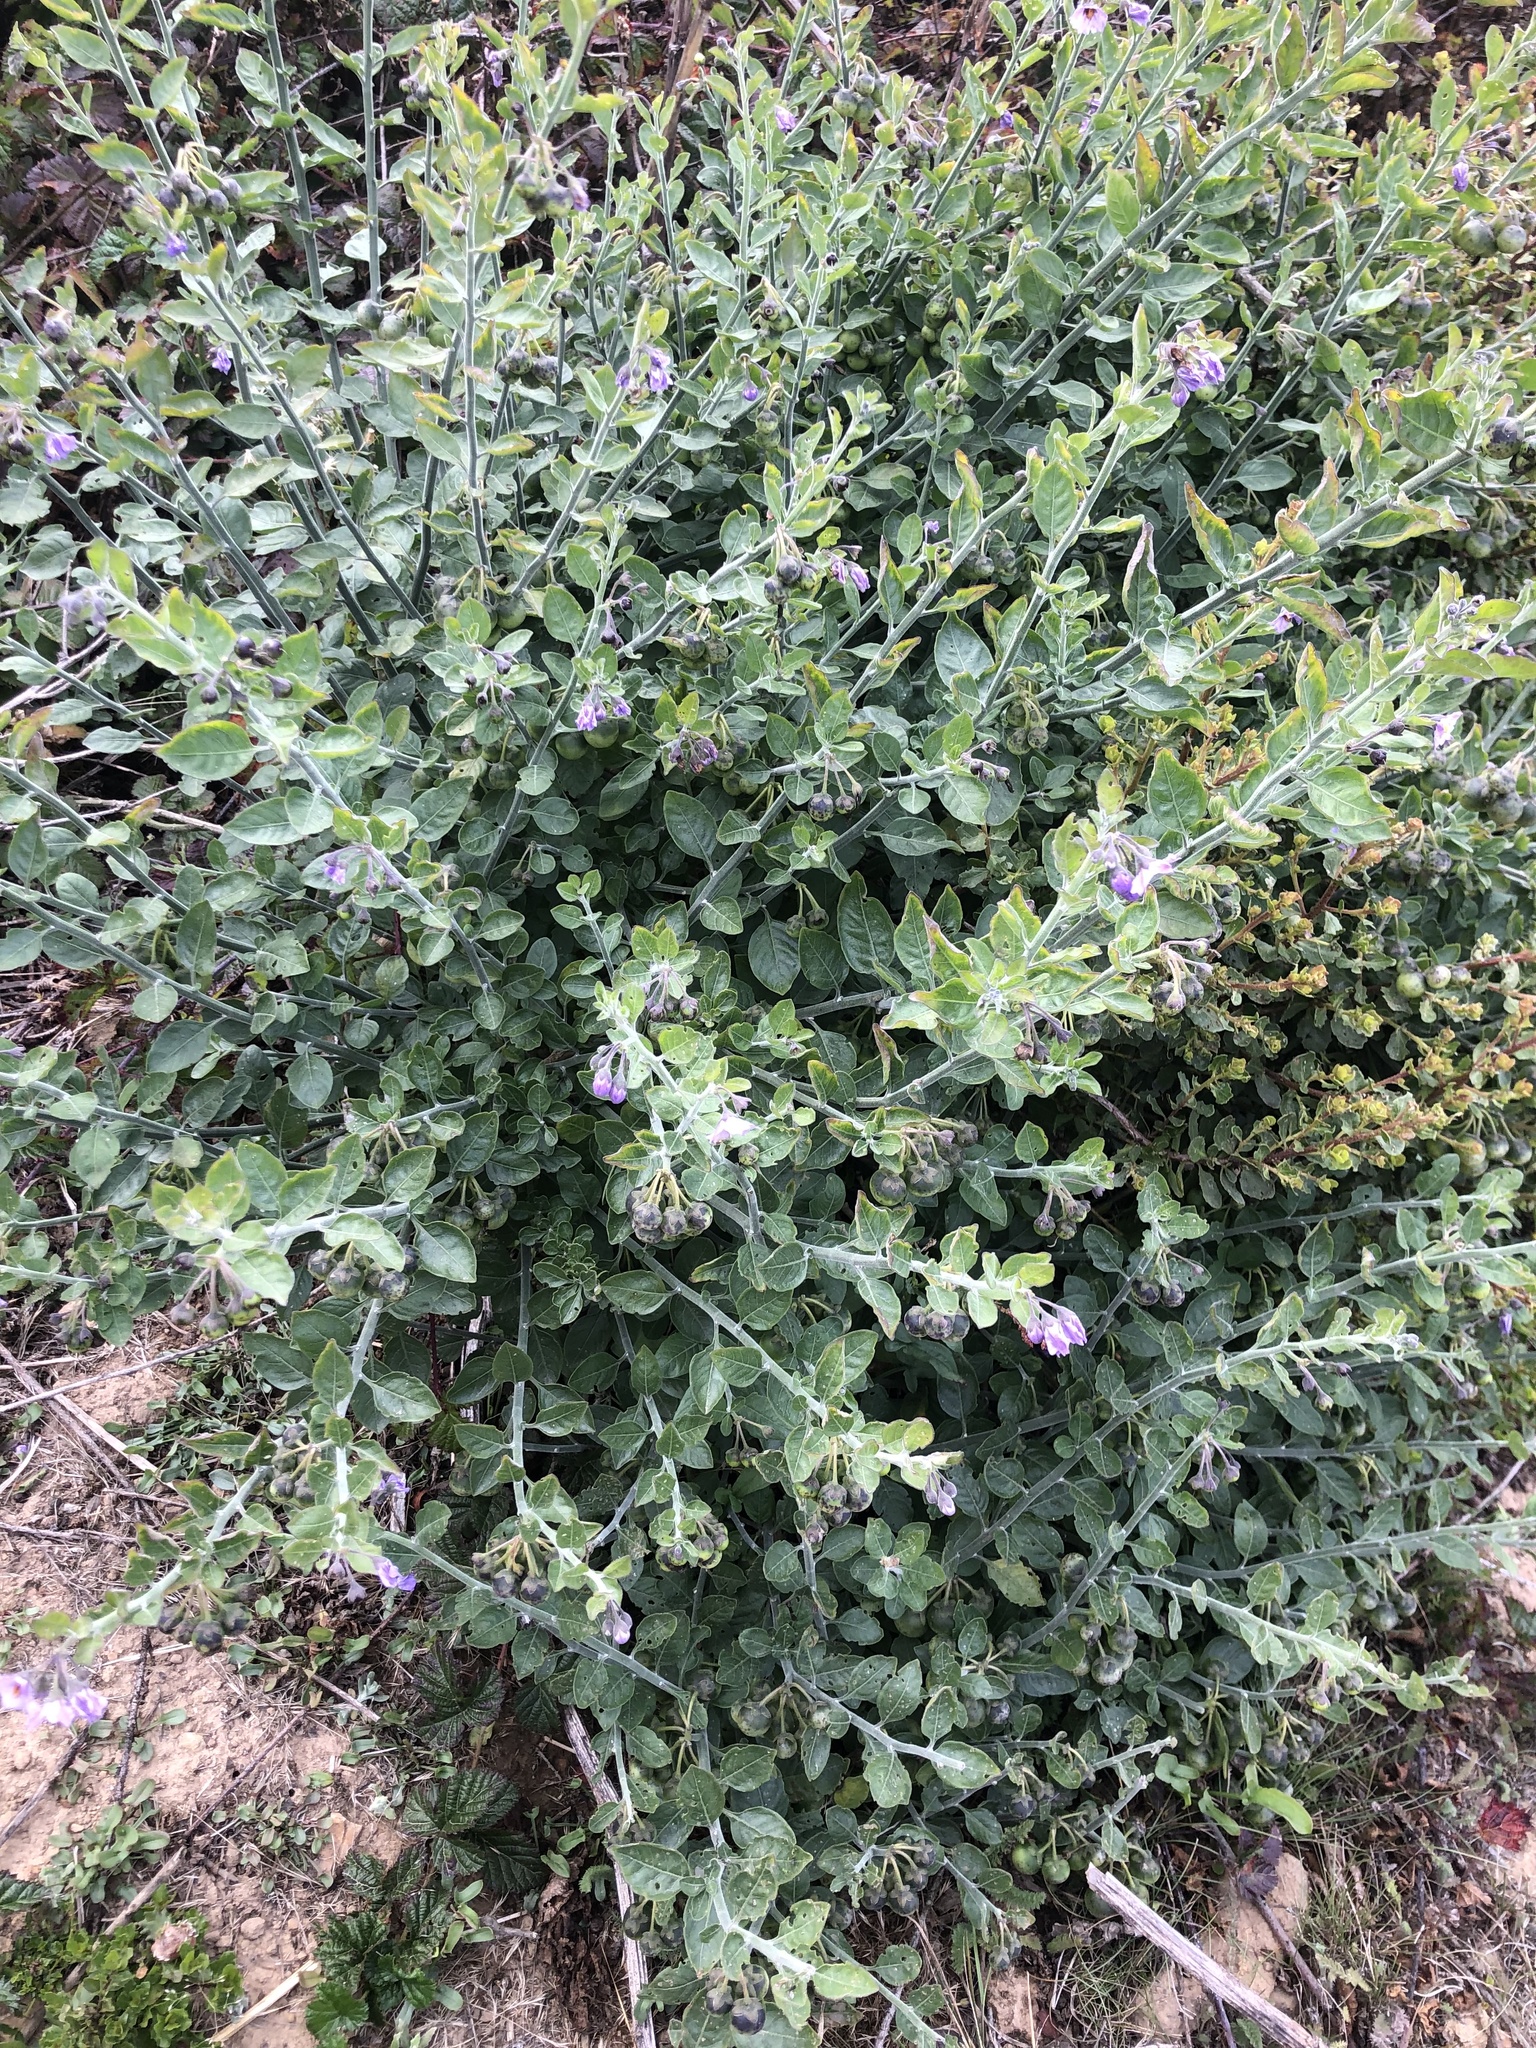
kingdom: Plantae
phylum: Tracheophyta
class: Magnoliopsida
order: Solanales
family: Solanaceae
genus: Solanum
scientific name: Solanum umbelliferum
